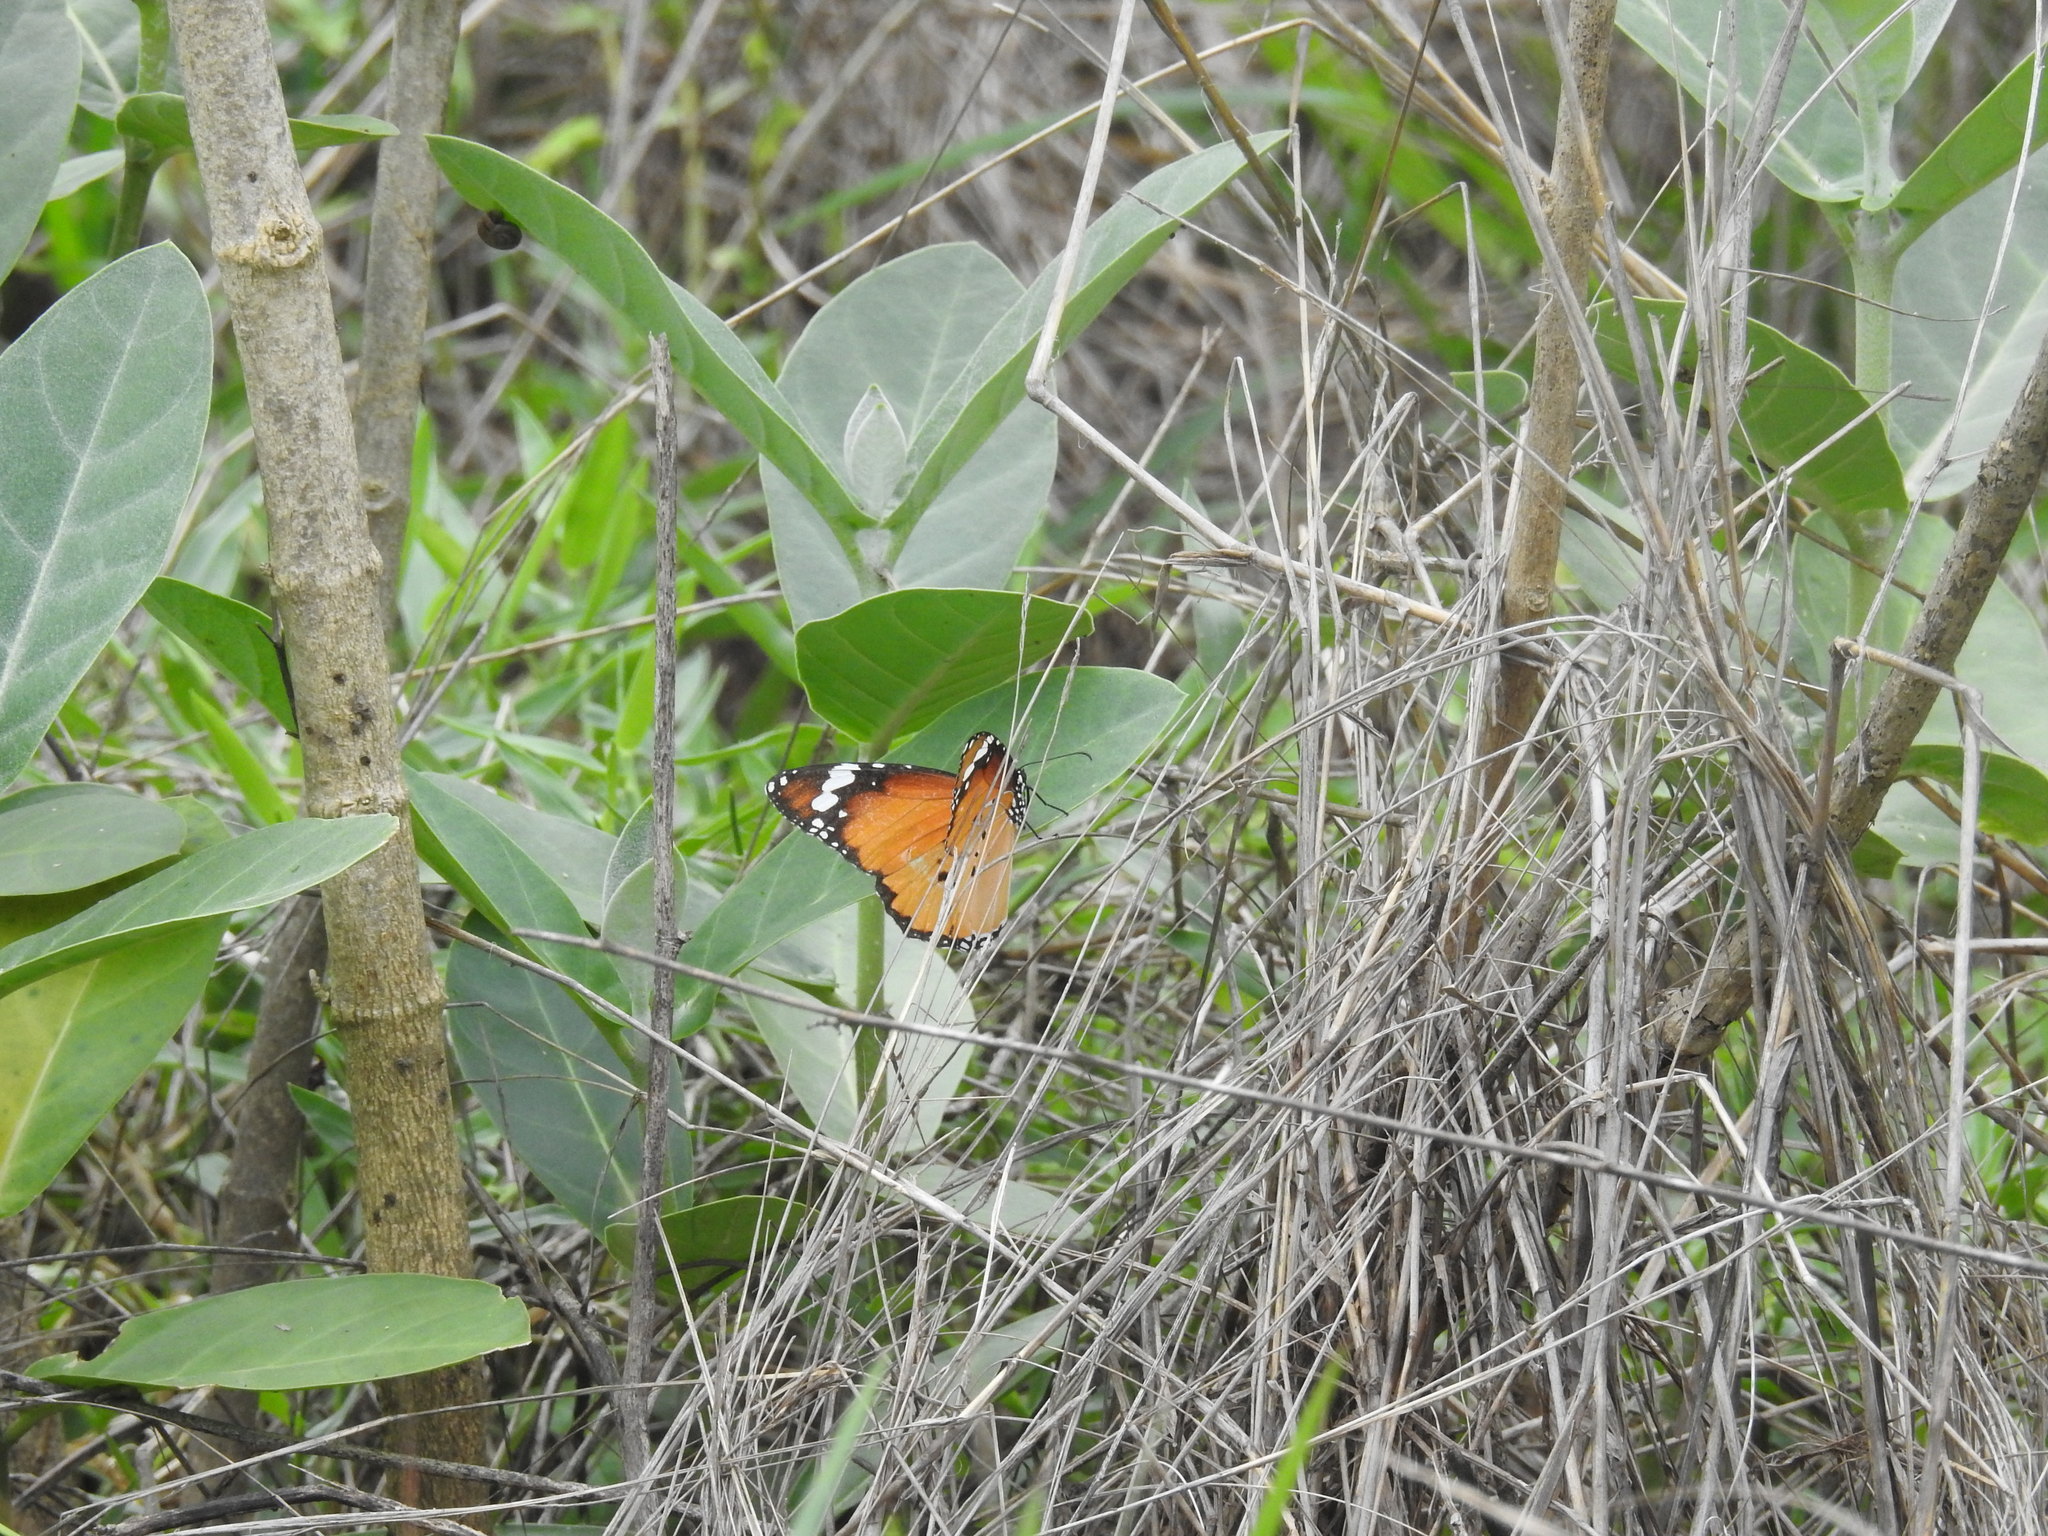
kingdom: Animalia
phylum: Arthropoda
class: Insecta
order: Lepidoptera
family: Nymphalidae
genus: Danaus
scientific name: Danaus chrysippus
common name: Plain tiger
